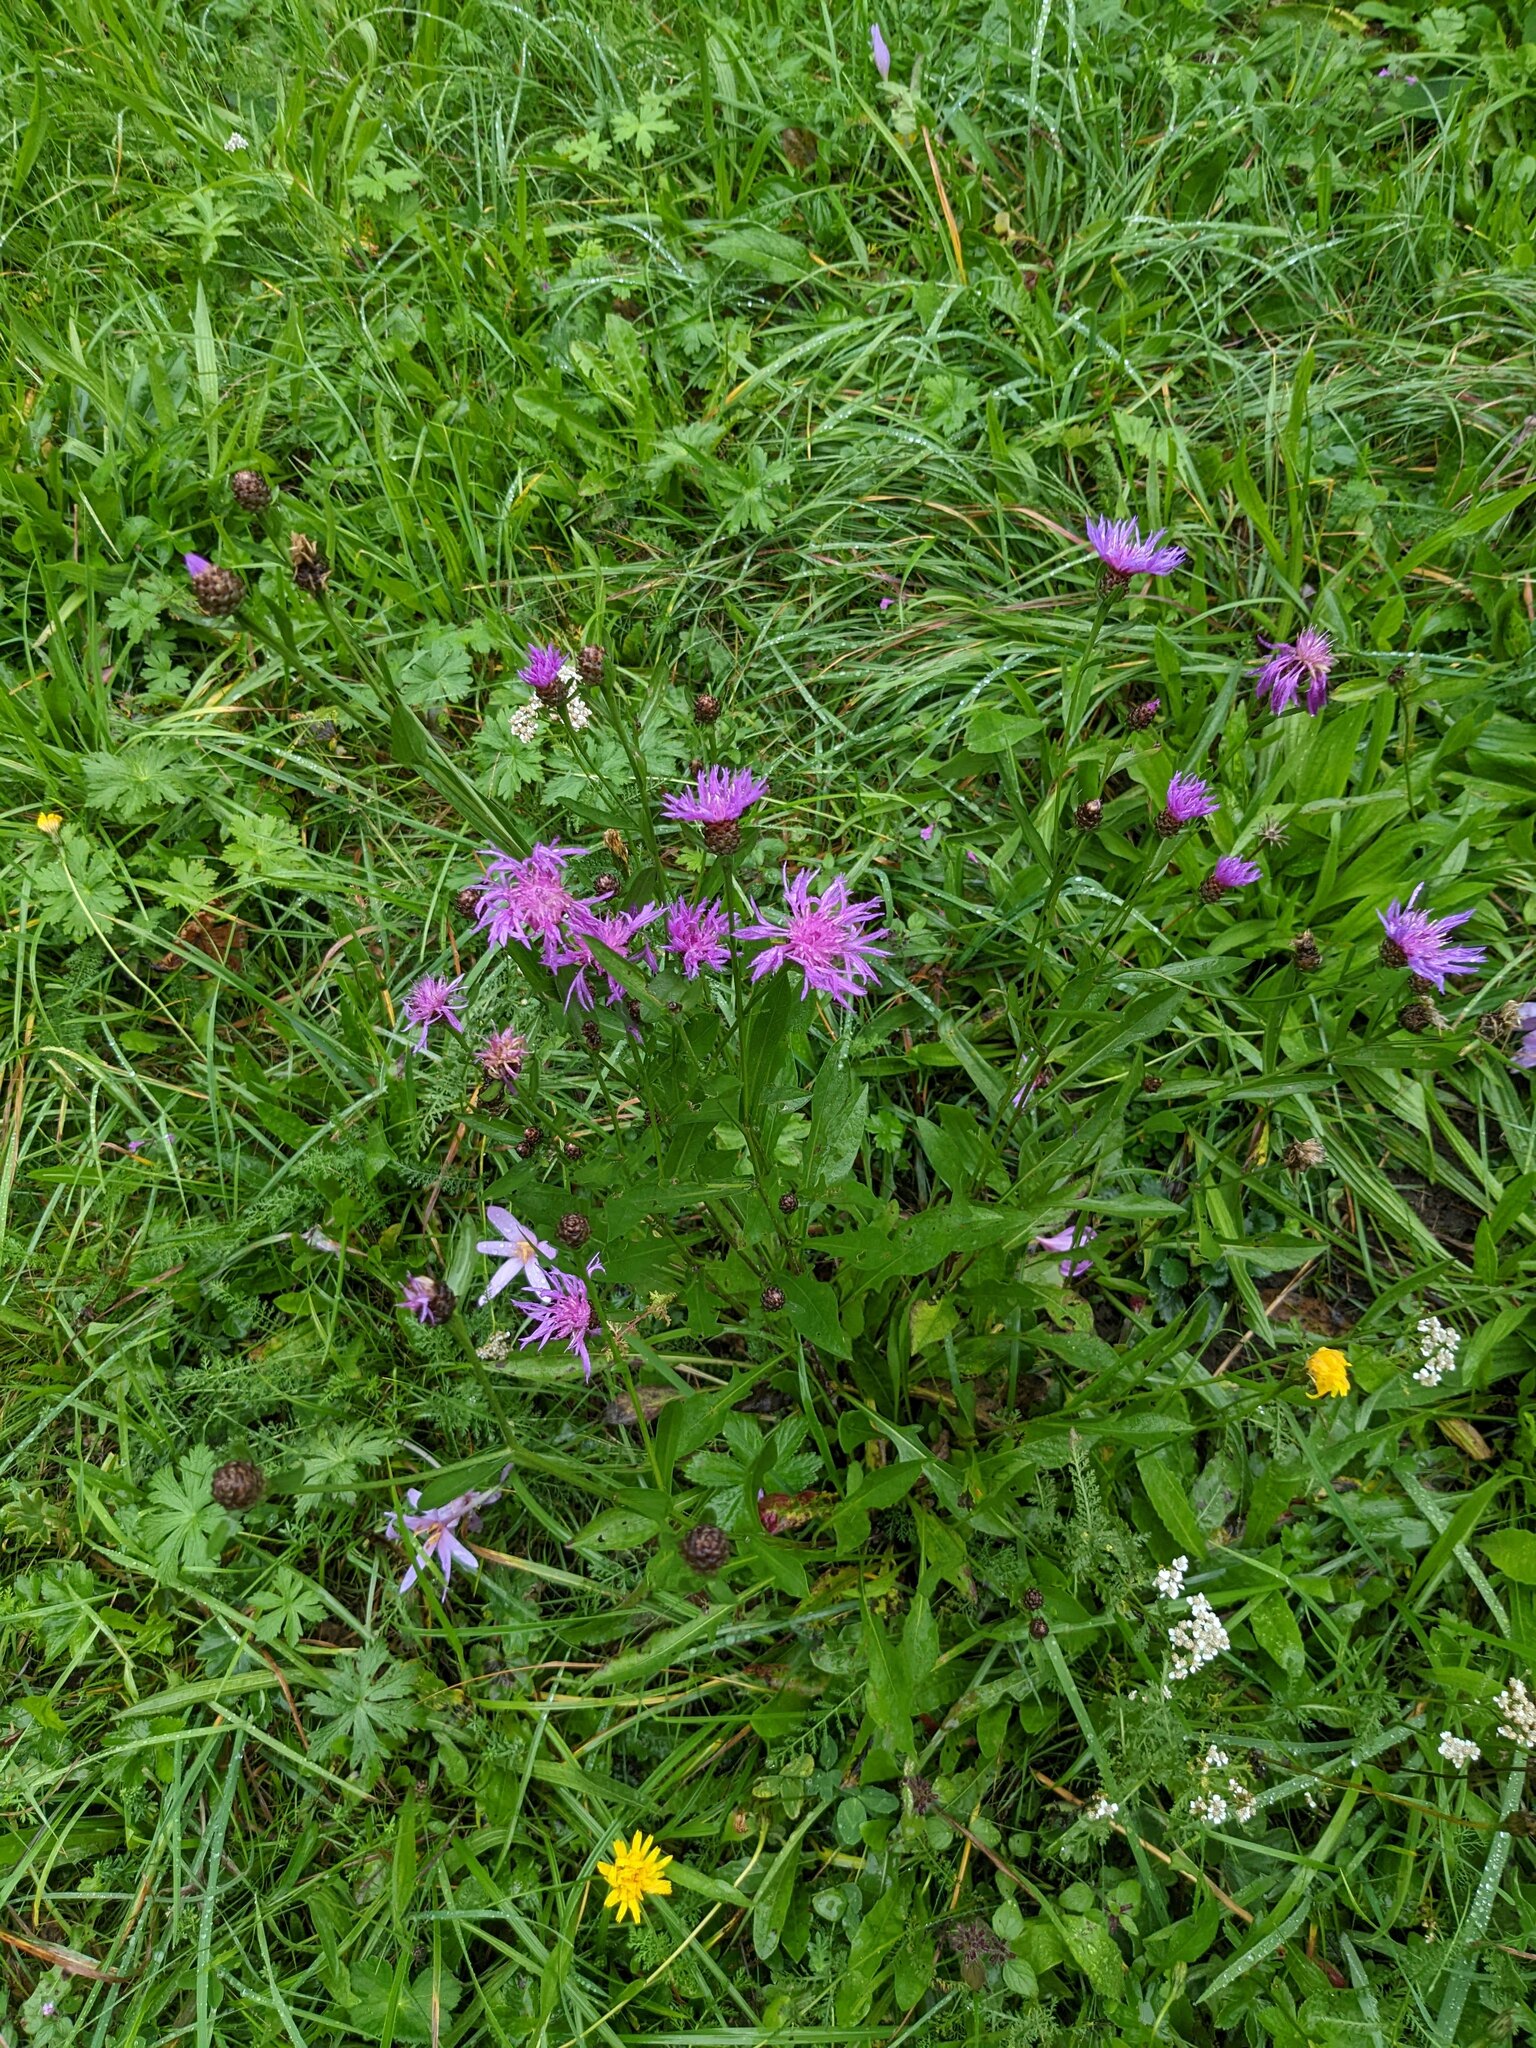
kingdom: Plantae
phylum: Tracheophyta
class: Magnoliopsida
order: Asterales
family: Asteraceae
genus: Centaurea
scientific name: Centaurea jacea
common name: Brown knapweed
